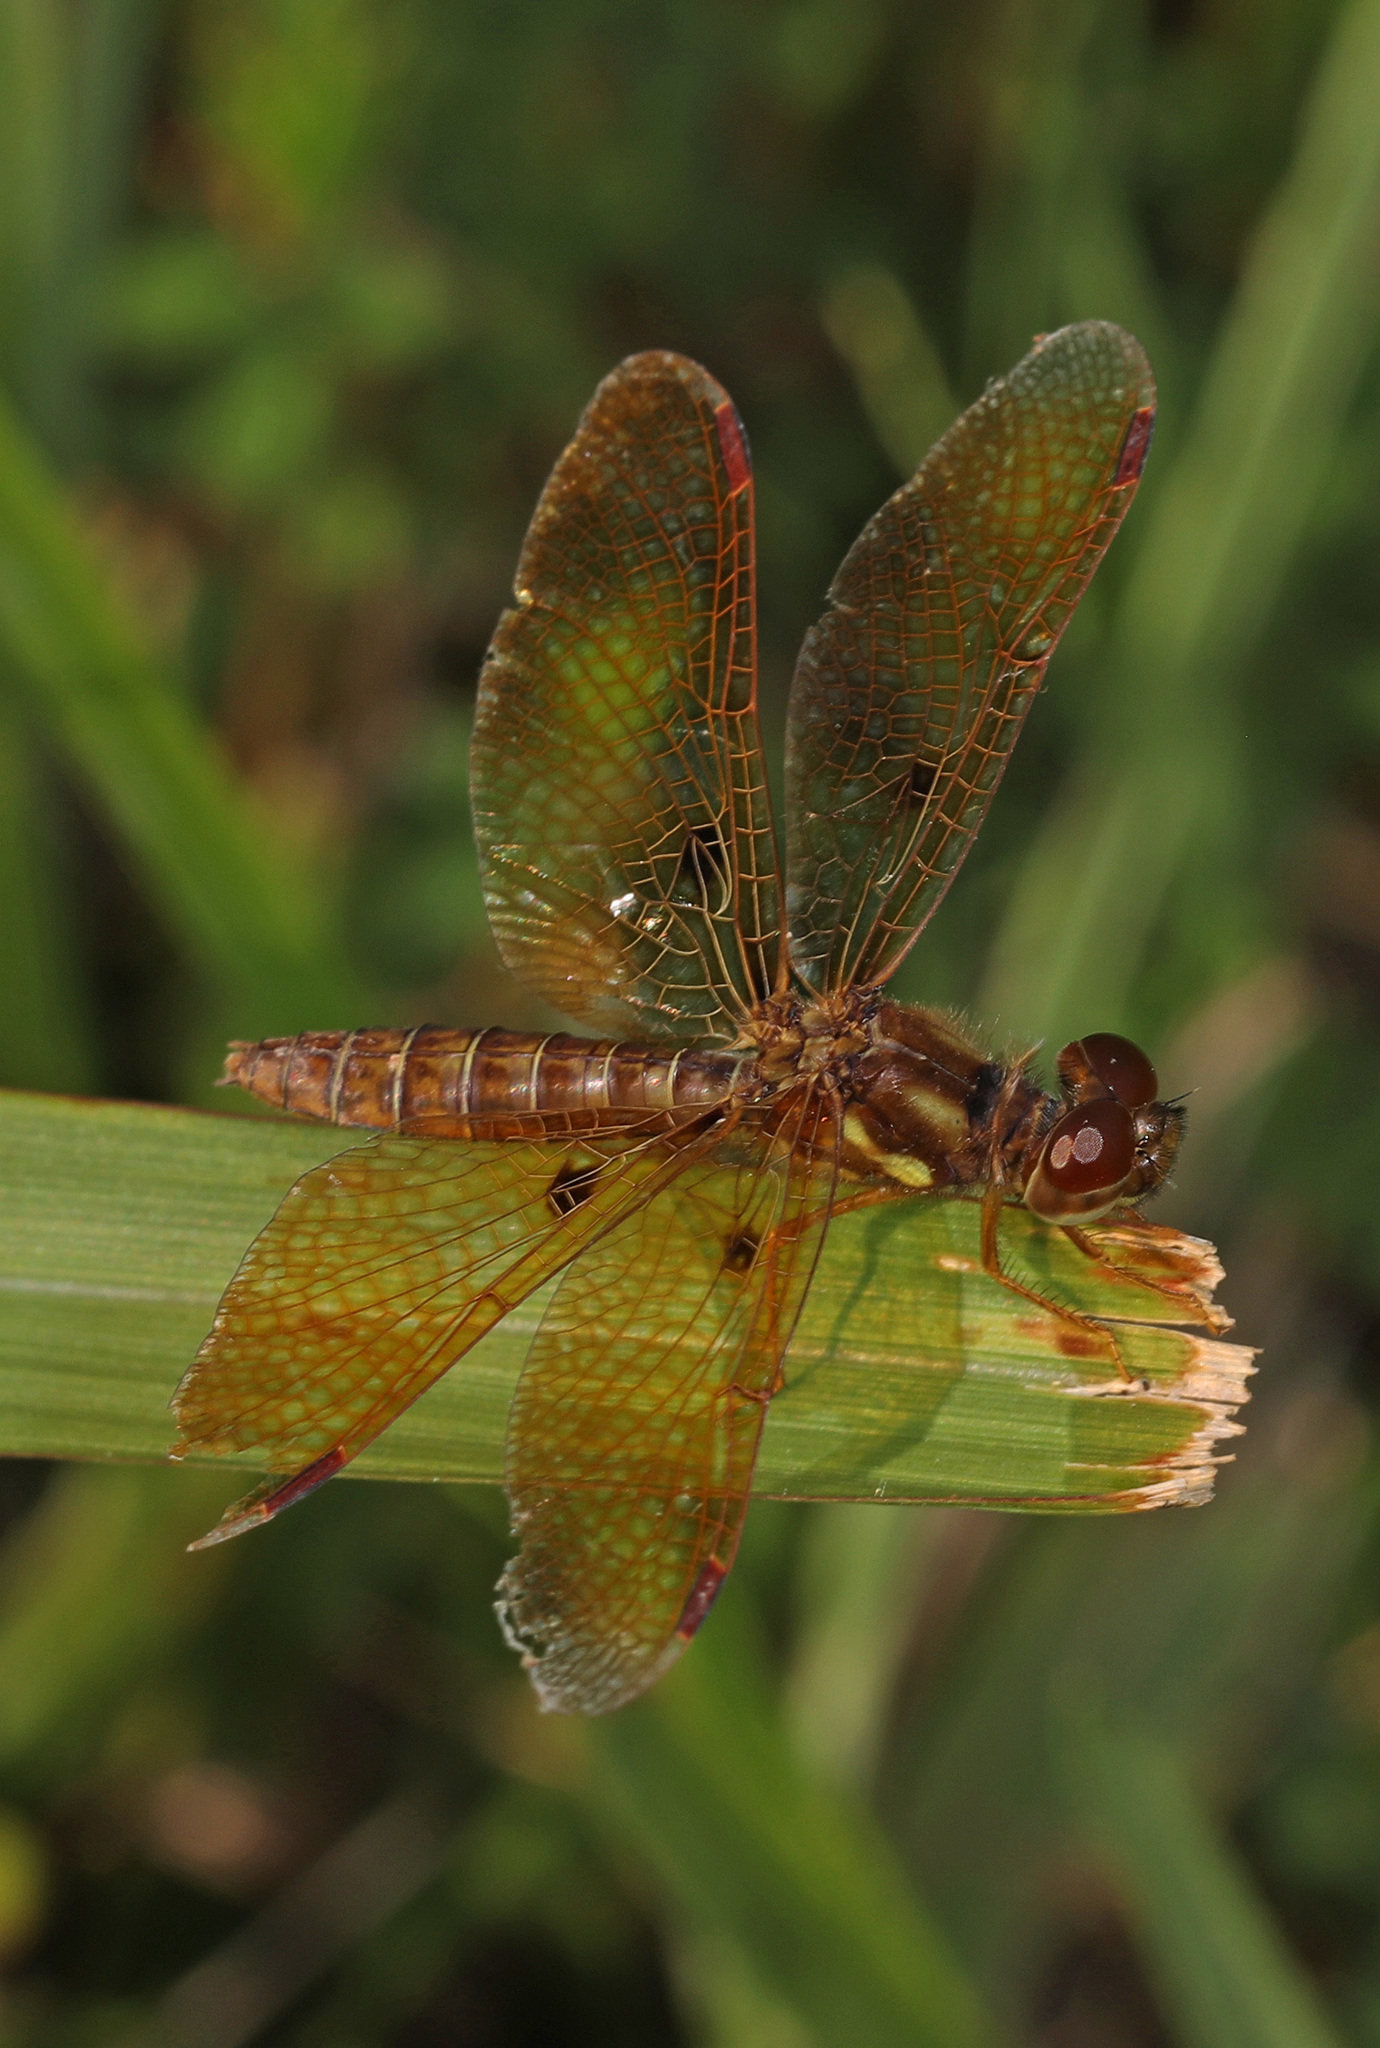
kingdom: Animalia
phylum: Arthropoda
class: Insecta
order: Odonata
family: Libellulidae
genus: Perithemis
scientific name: Perithemis tenera
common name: Eastern amberwing
